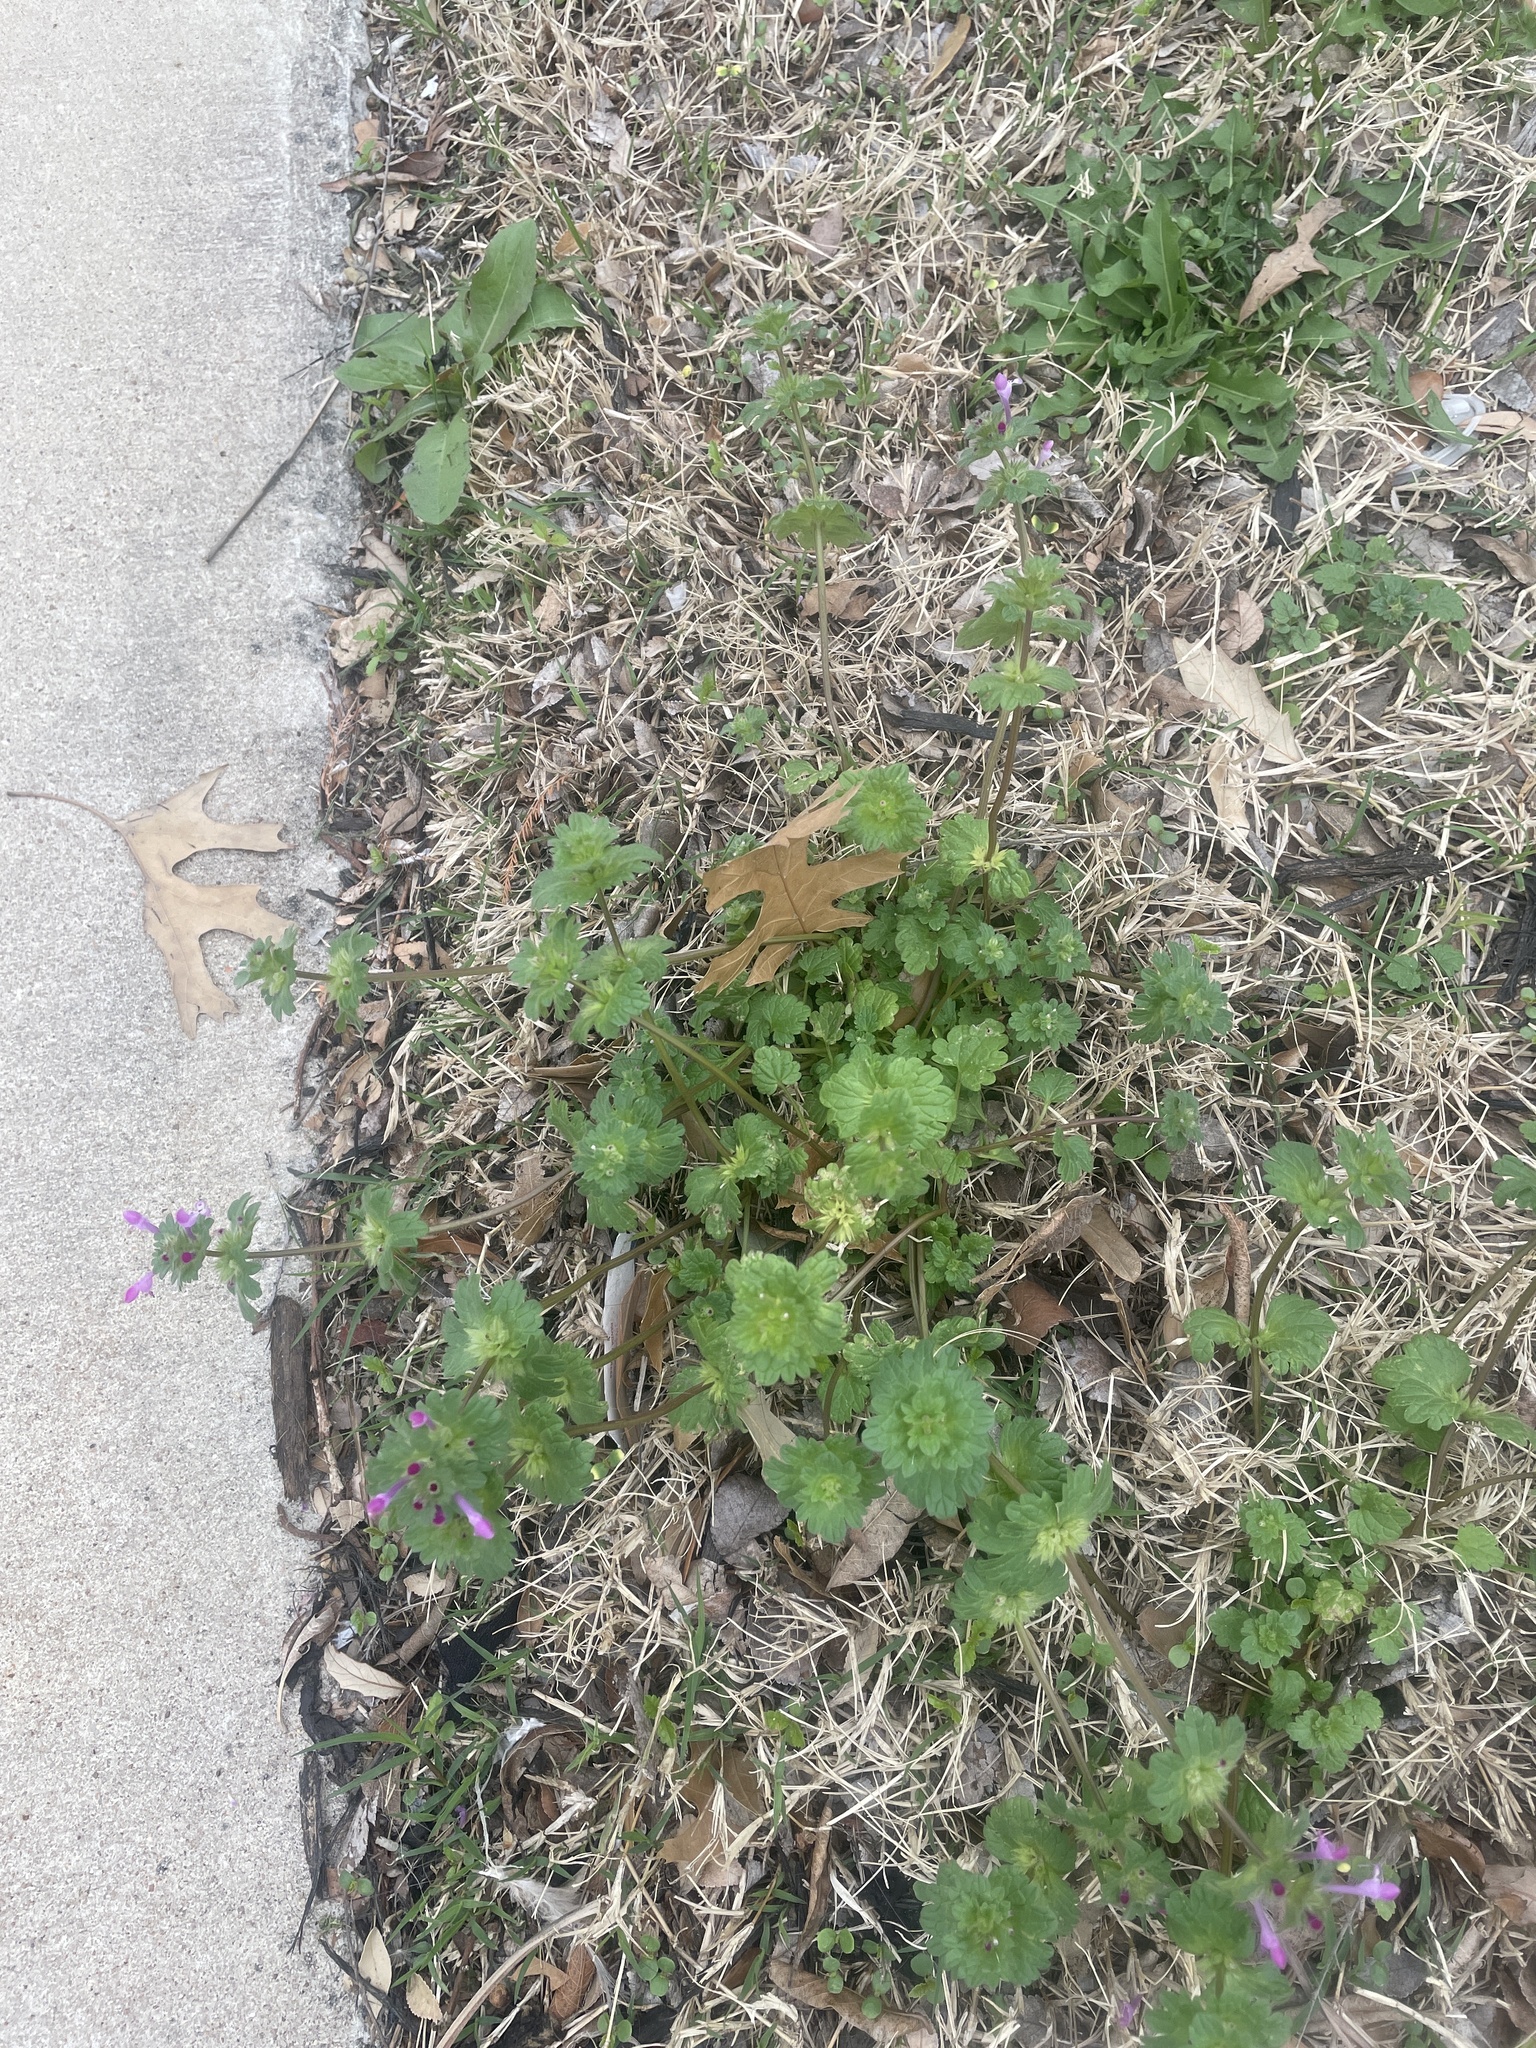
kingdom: Plantae
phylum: Tracheophyta
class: Magnoliopsida
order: Lamiales
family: Lamiaceae
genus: Lamium
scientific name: Lamium amplexicaule
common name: Henbit dead-nettle
